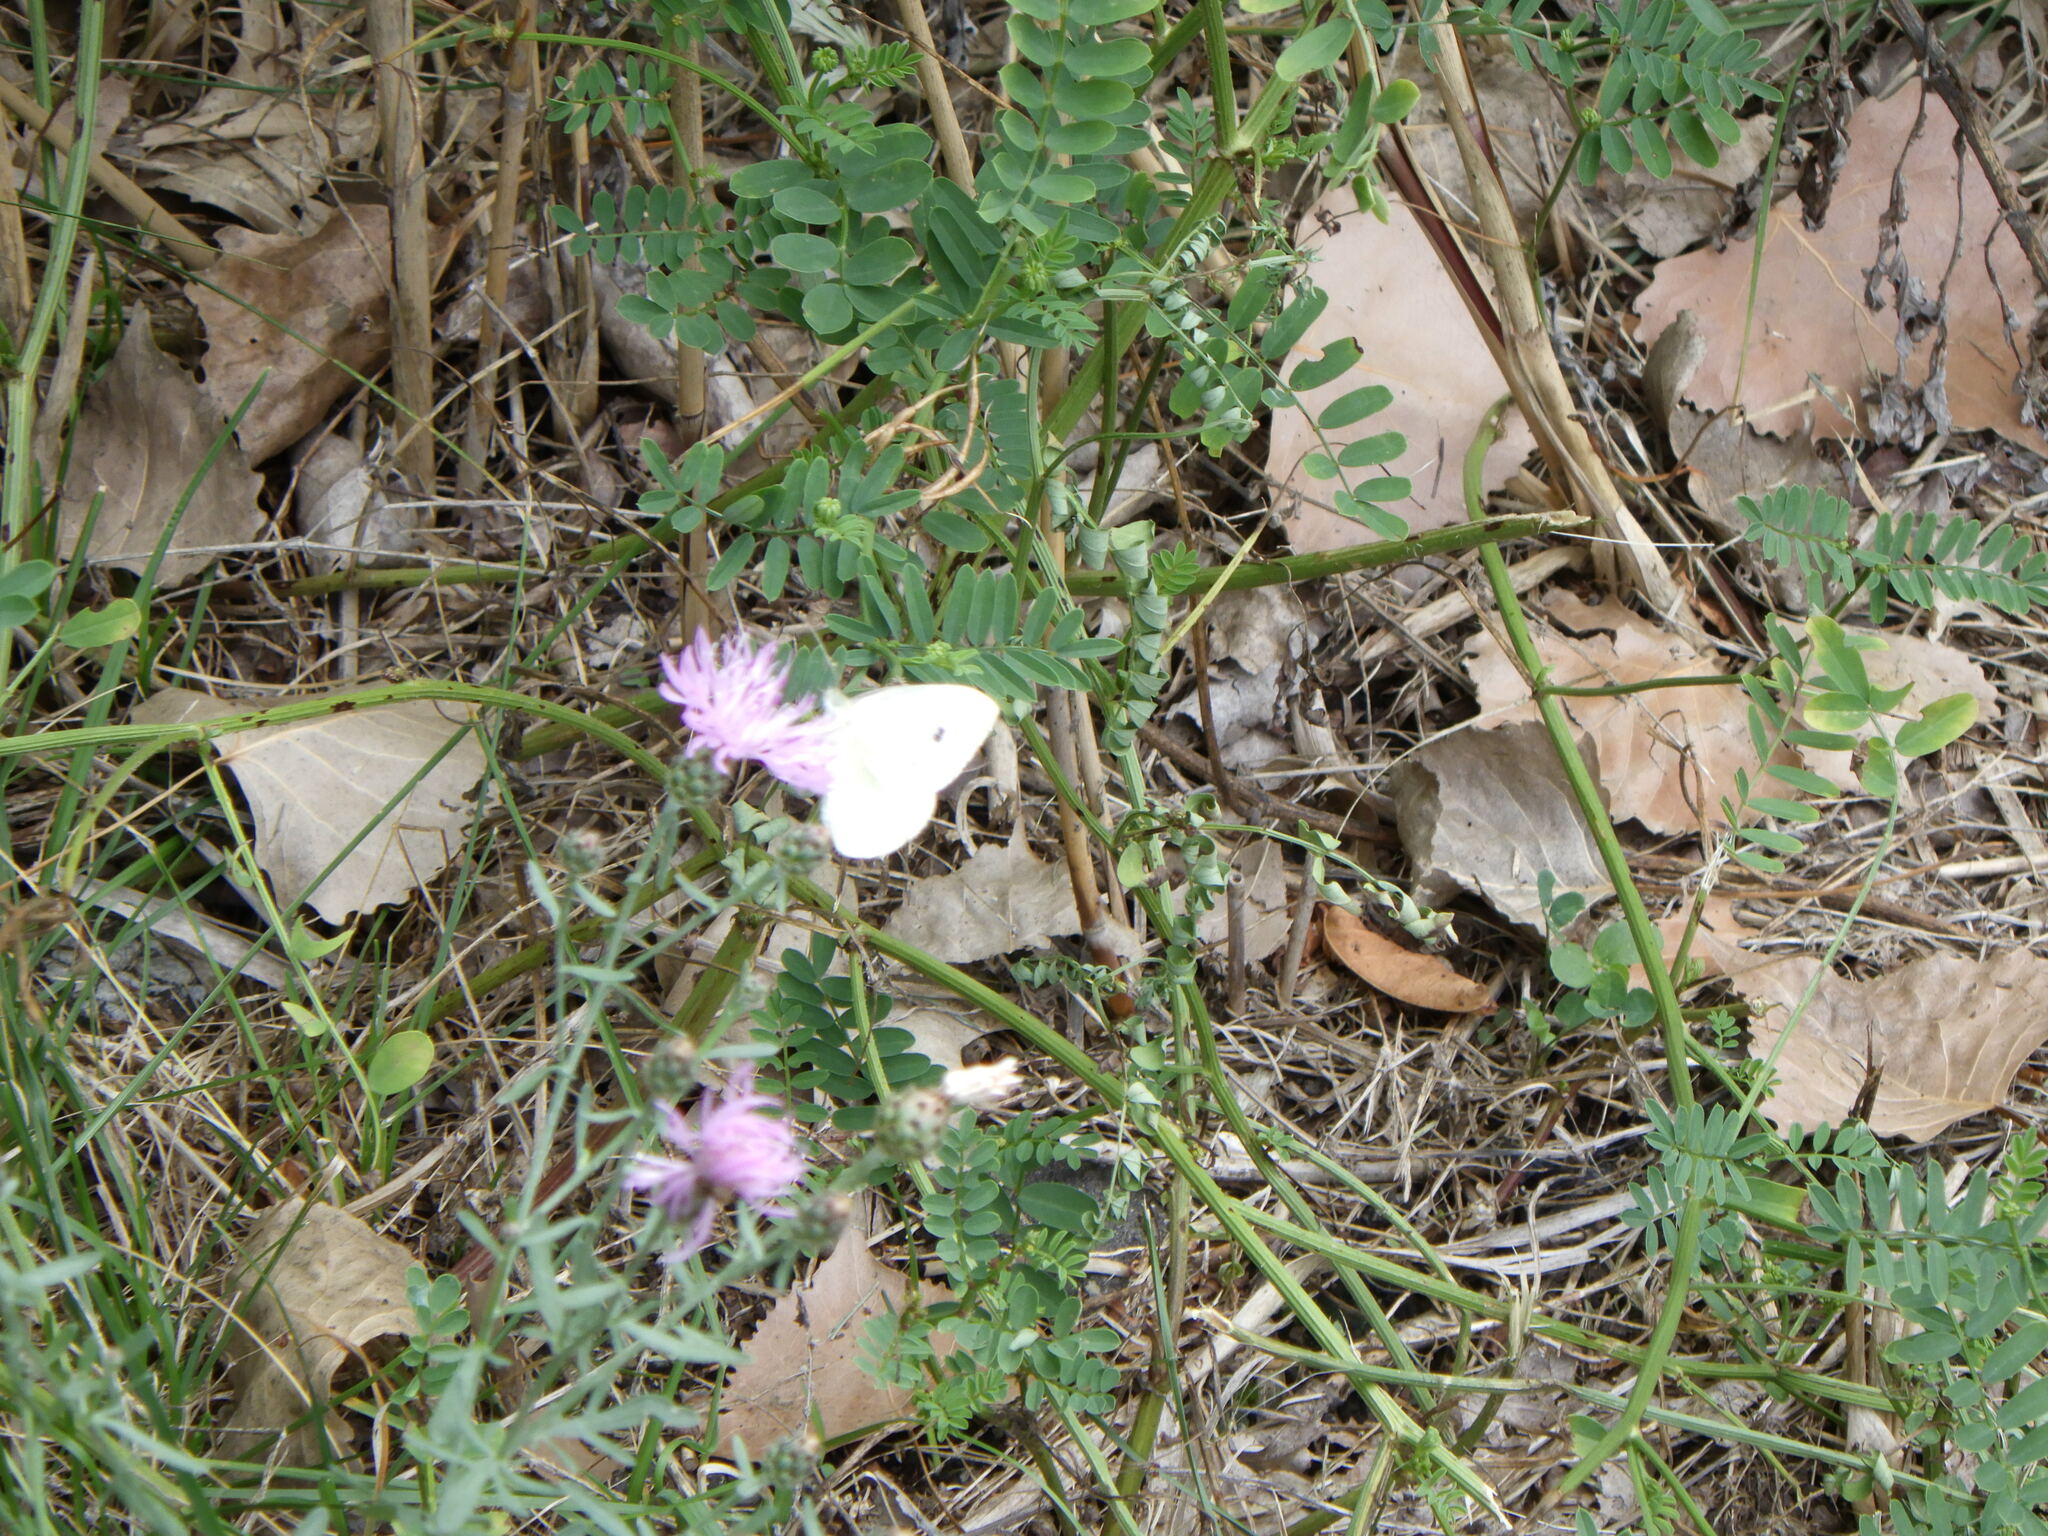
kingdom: Animalia
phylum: Arthropoda
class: Insecta
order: Lepidoptera
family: Pieridae
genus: Pieris
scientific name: Pieris rapae
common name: Small white
